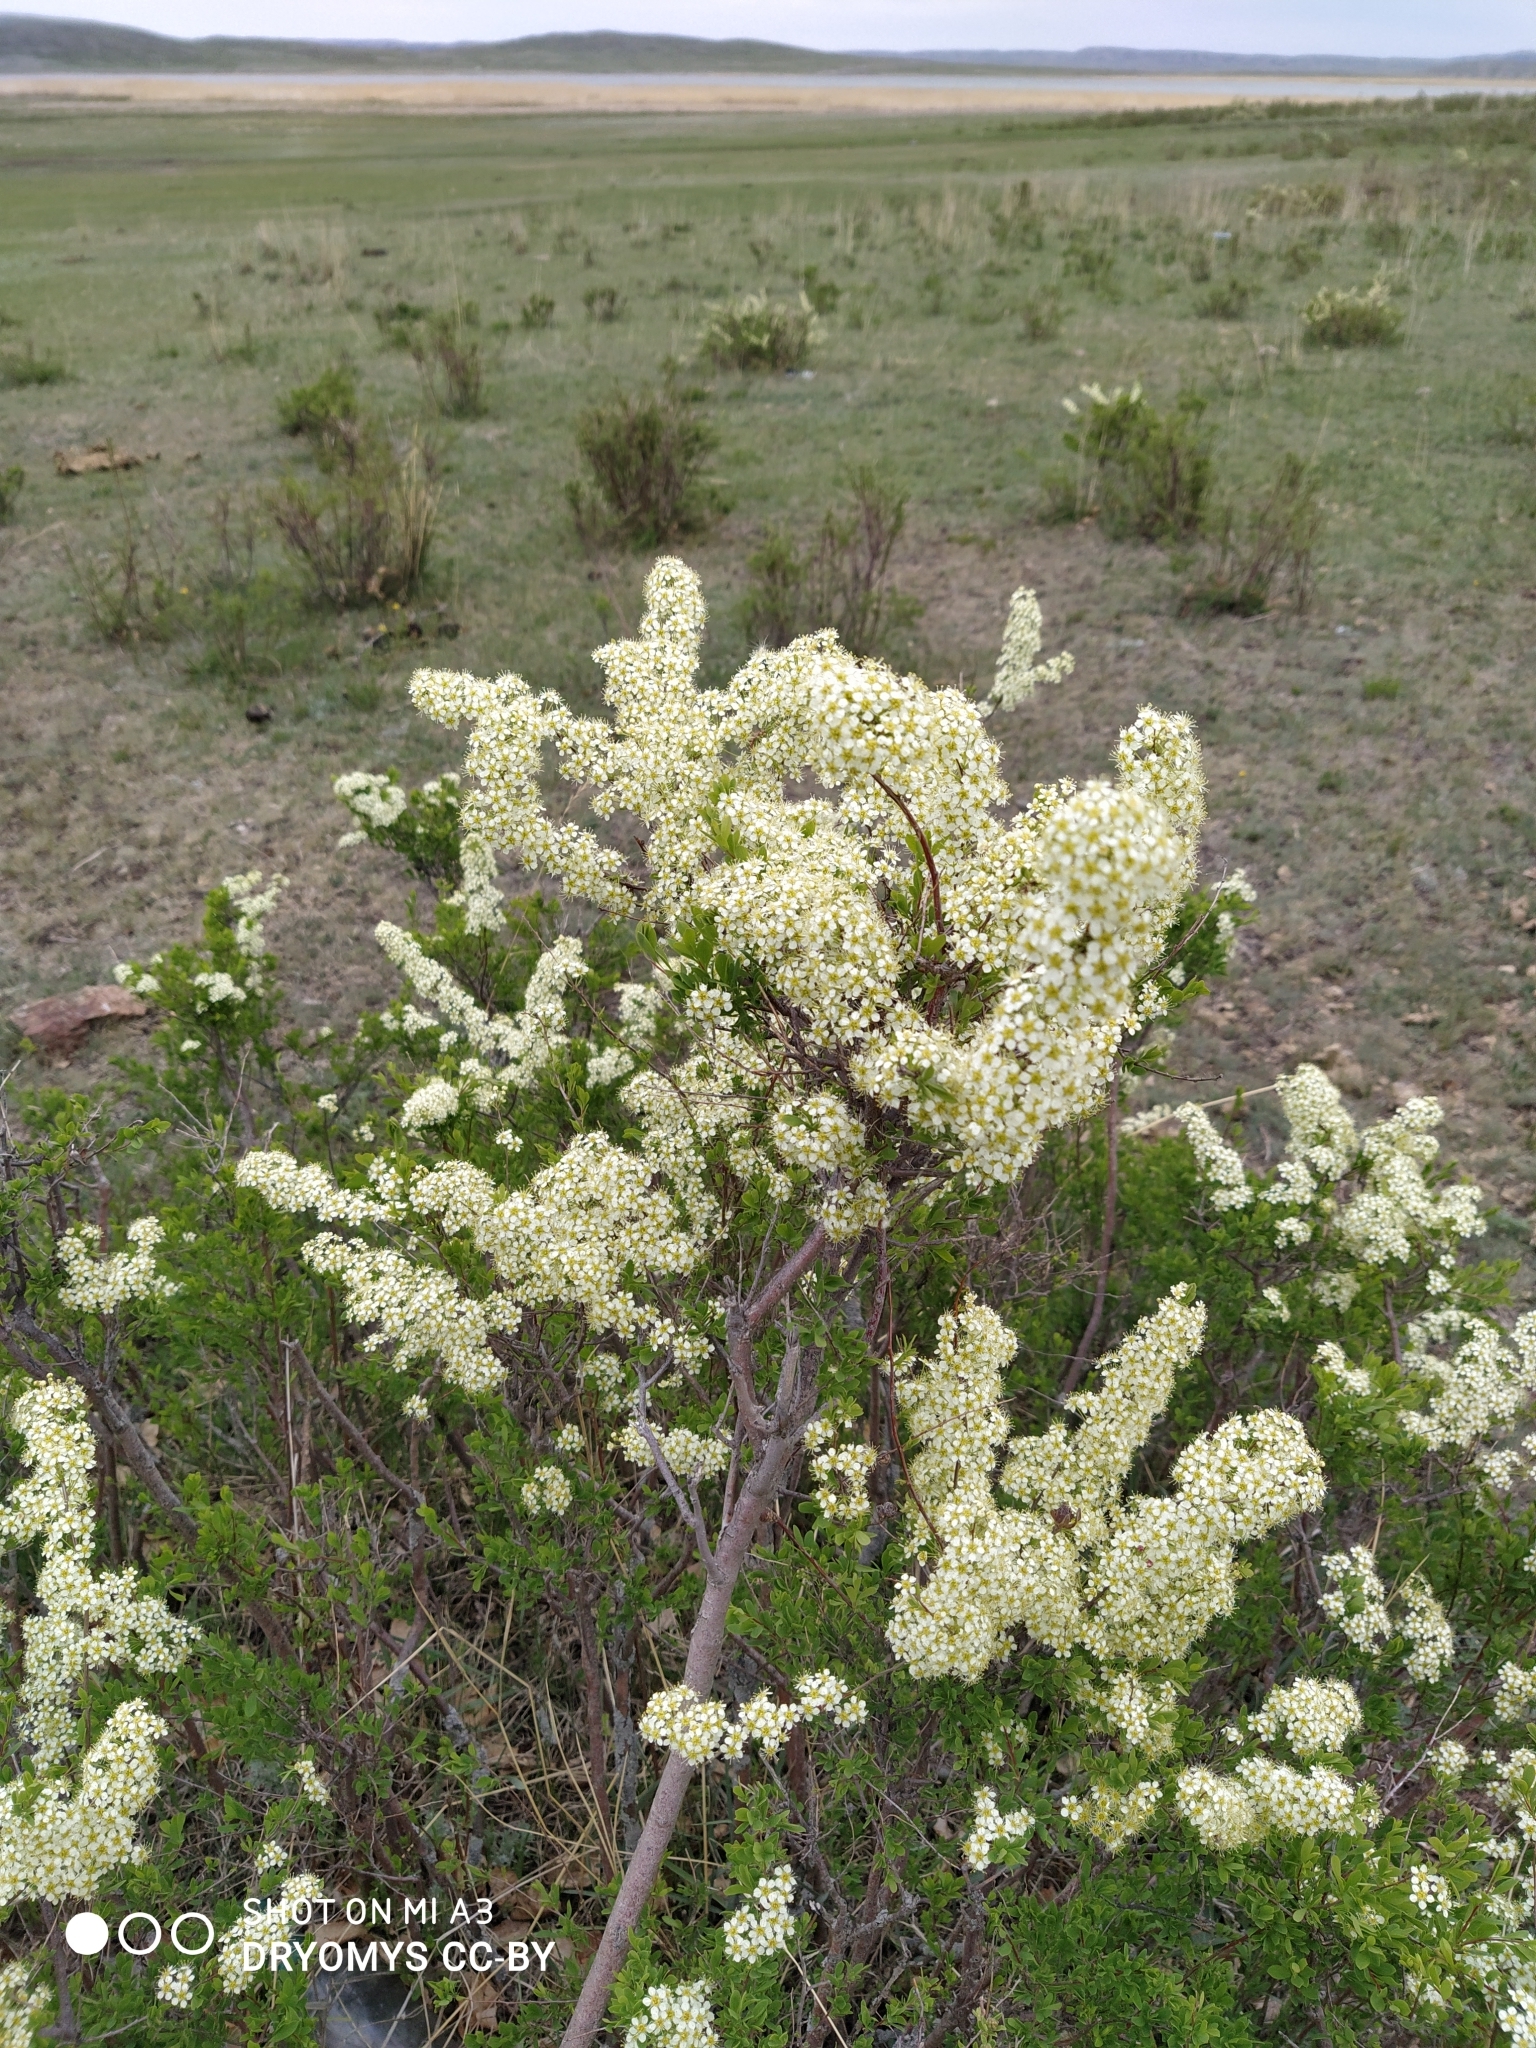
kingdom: Plantae
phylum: Tracheophyta
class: Magnoliopsida
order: Rosales
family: Rosaceae
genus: Spiraea
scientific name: Spiraea hypericifolia
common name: Iberian spirea
